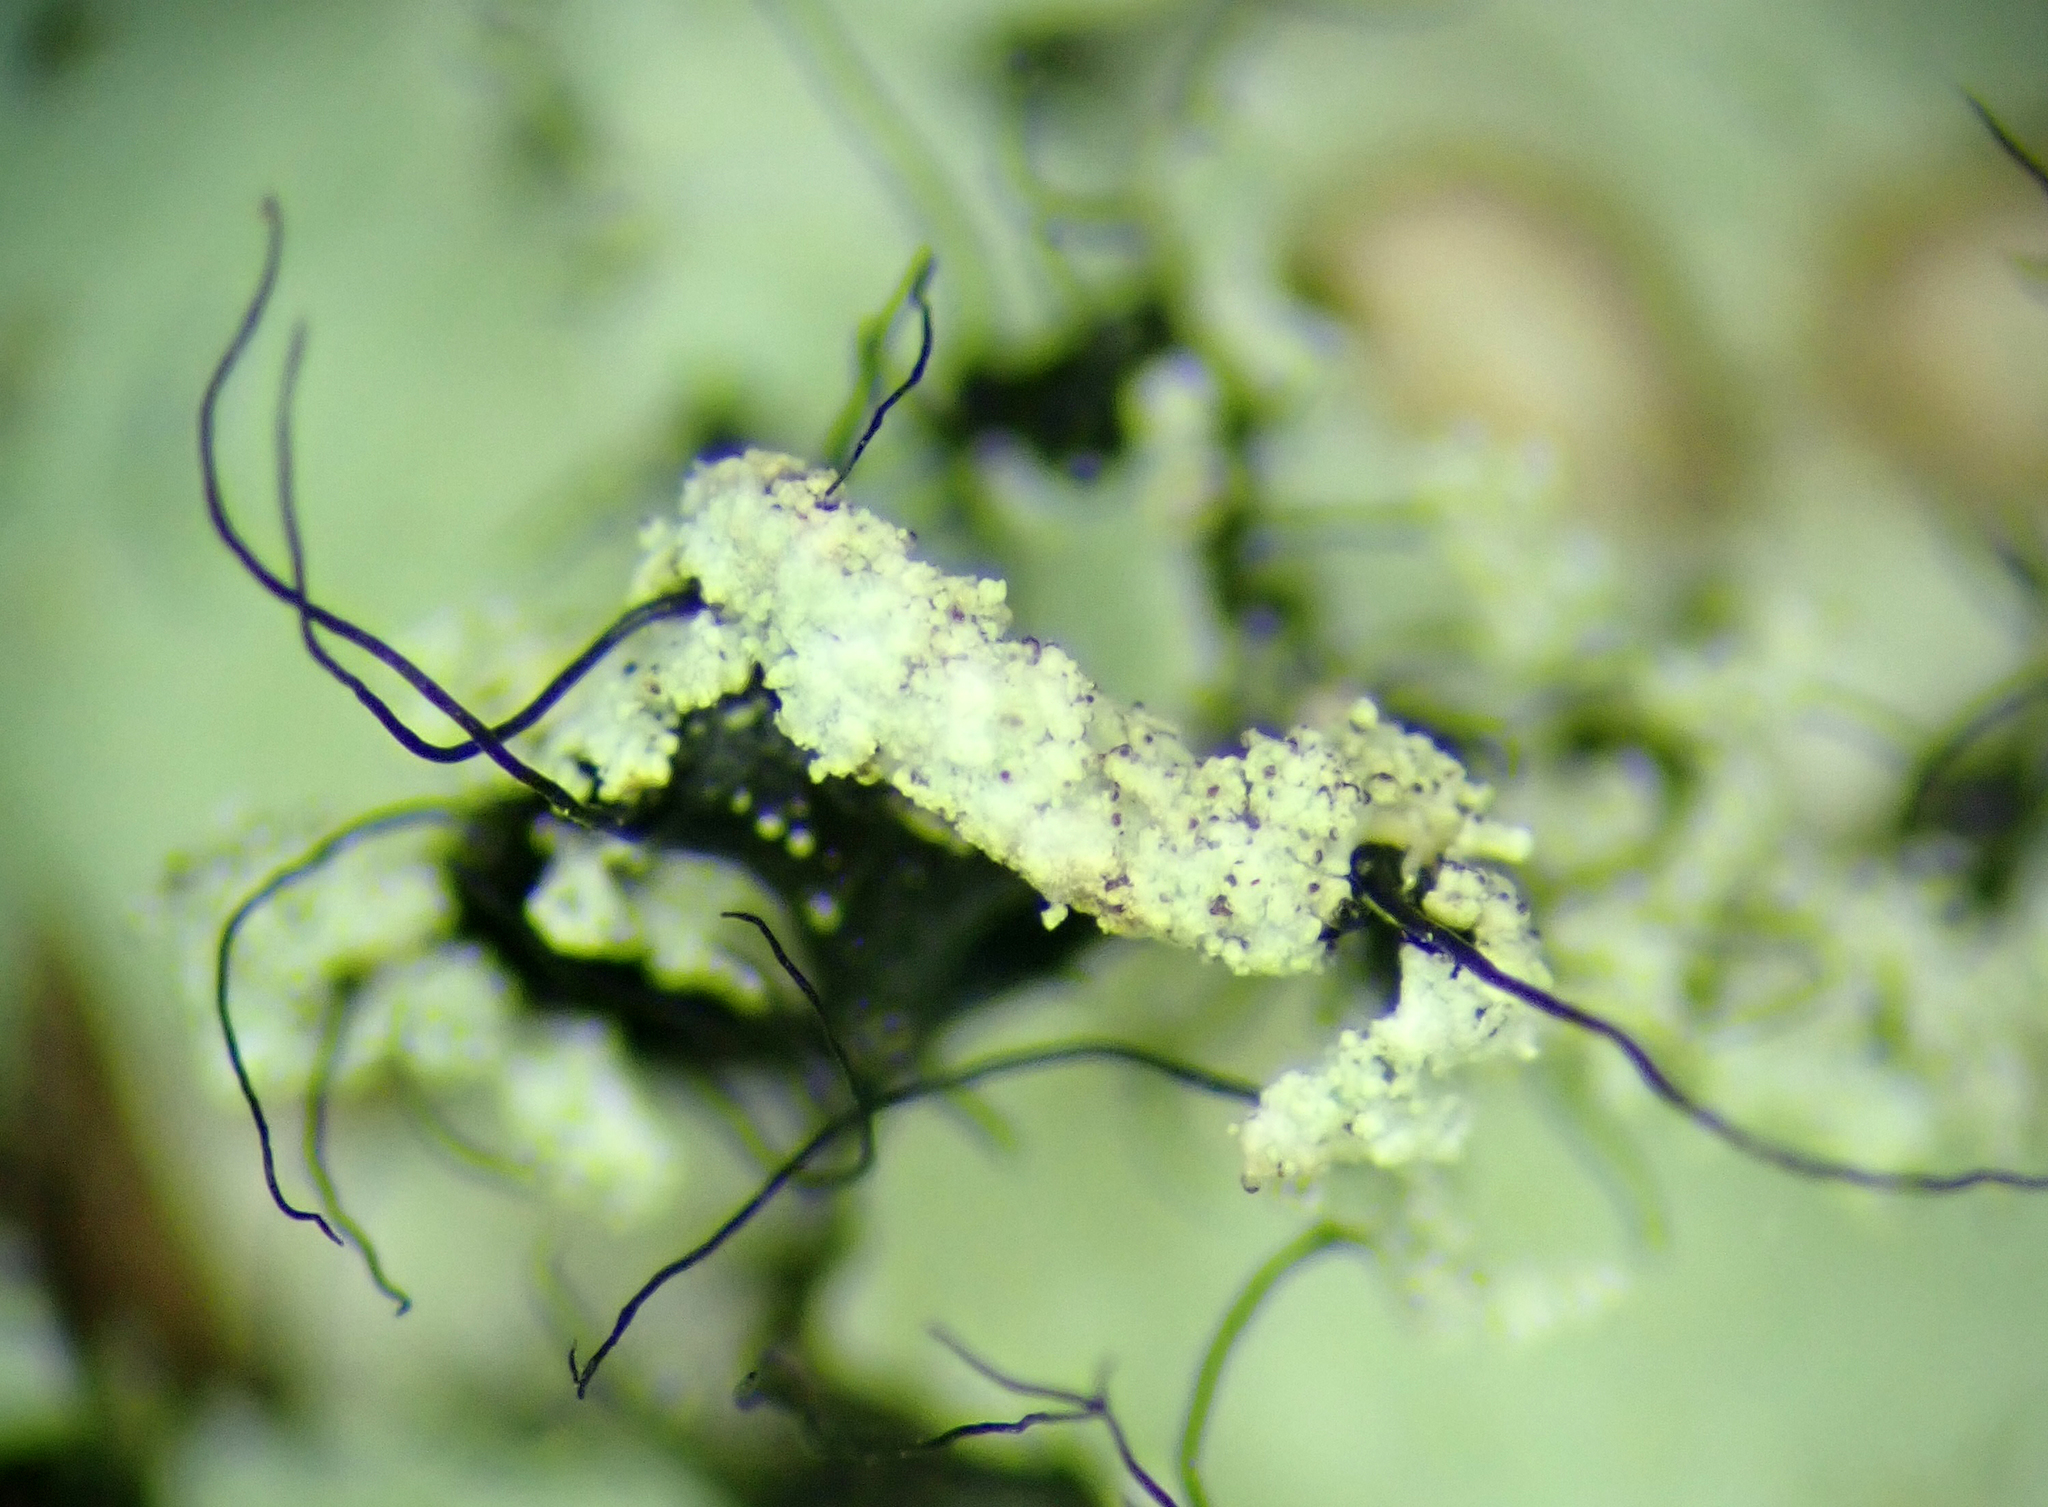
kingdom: Fungi
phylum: Ascomycota
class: Lecanoromycetes
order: Lecanorales
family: Parmeliaceae
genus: Parmotrema
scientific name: Parmotrema mellissii
